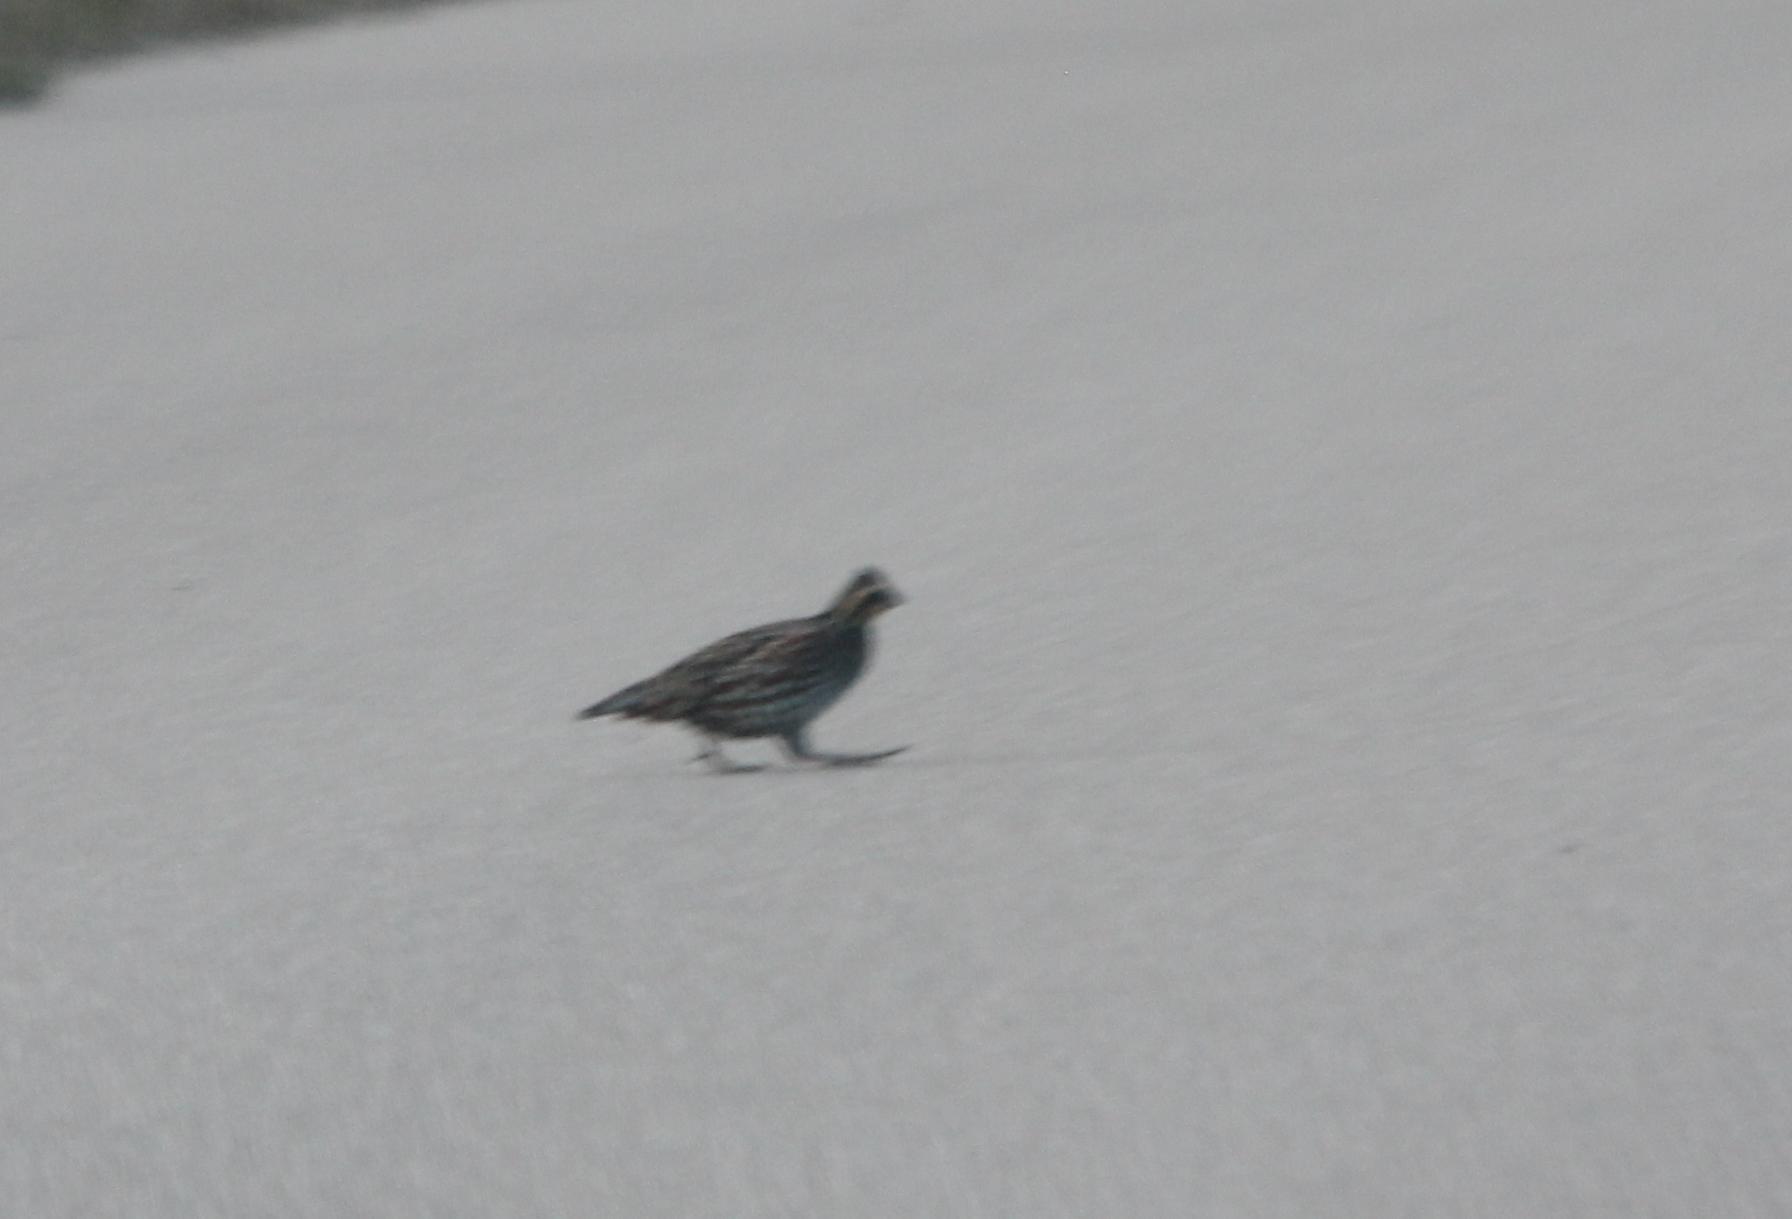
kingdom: Animalia
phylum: Chordata
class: Aves
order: Galliformes
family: Odontophoridae
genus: Colinus
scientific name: Colinus virginianus
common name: Northern bobwhite
